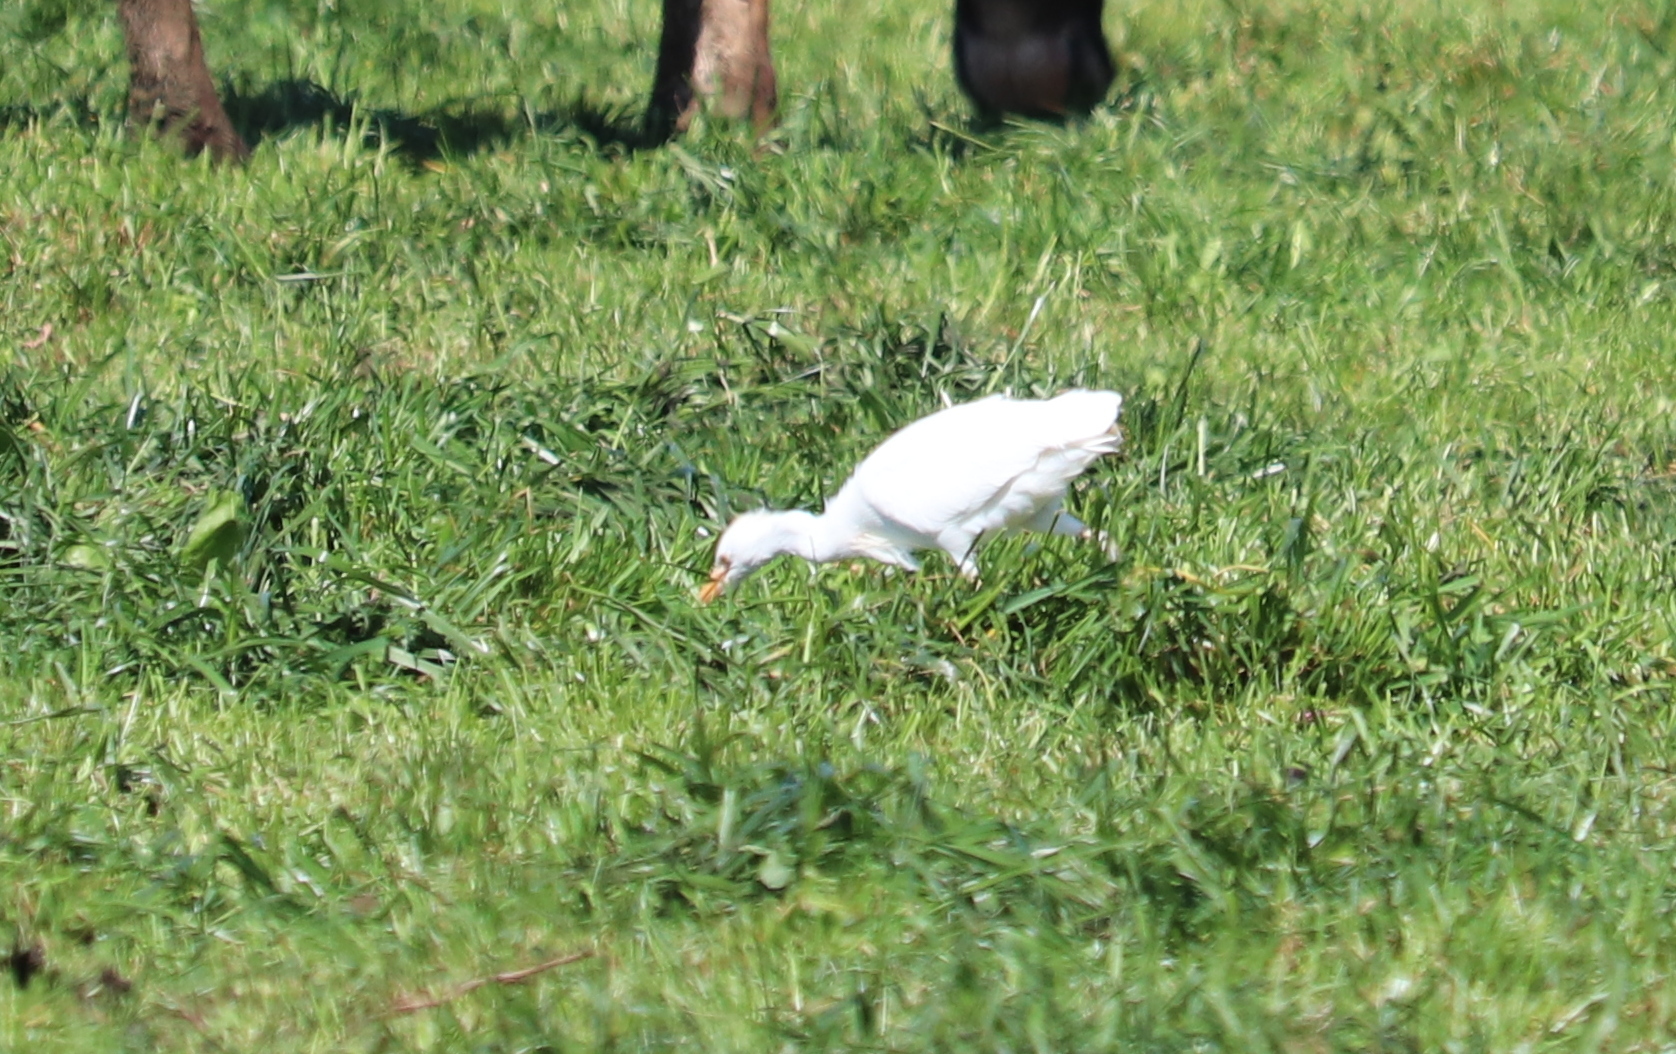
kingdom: Animalia
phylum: Chordata
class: Aves
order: Pelecaniformes
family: Ardeidae
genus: Bubulcus
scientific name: Bubulcus ibis
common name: Cattle egret
